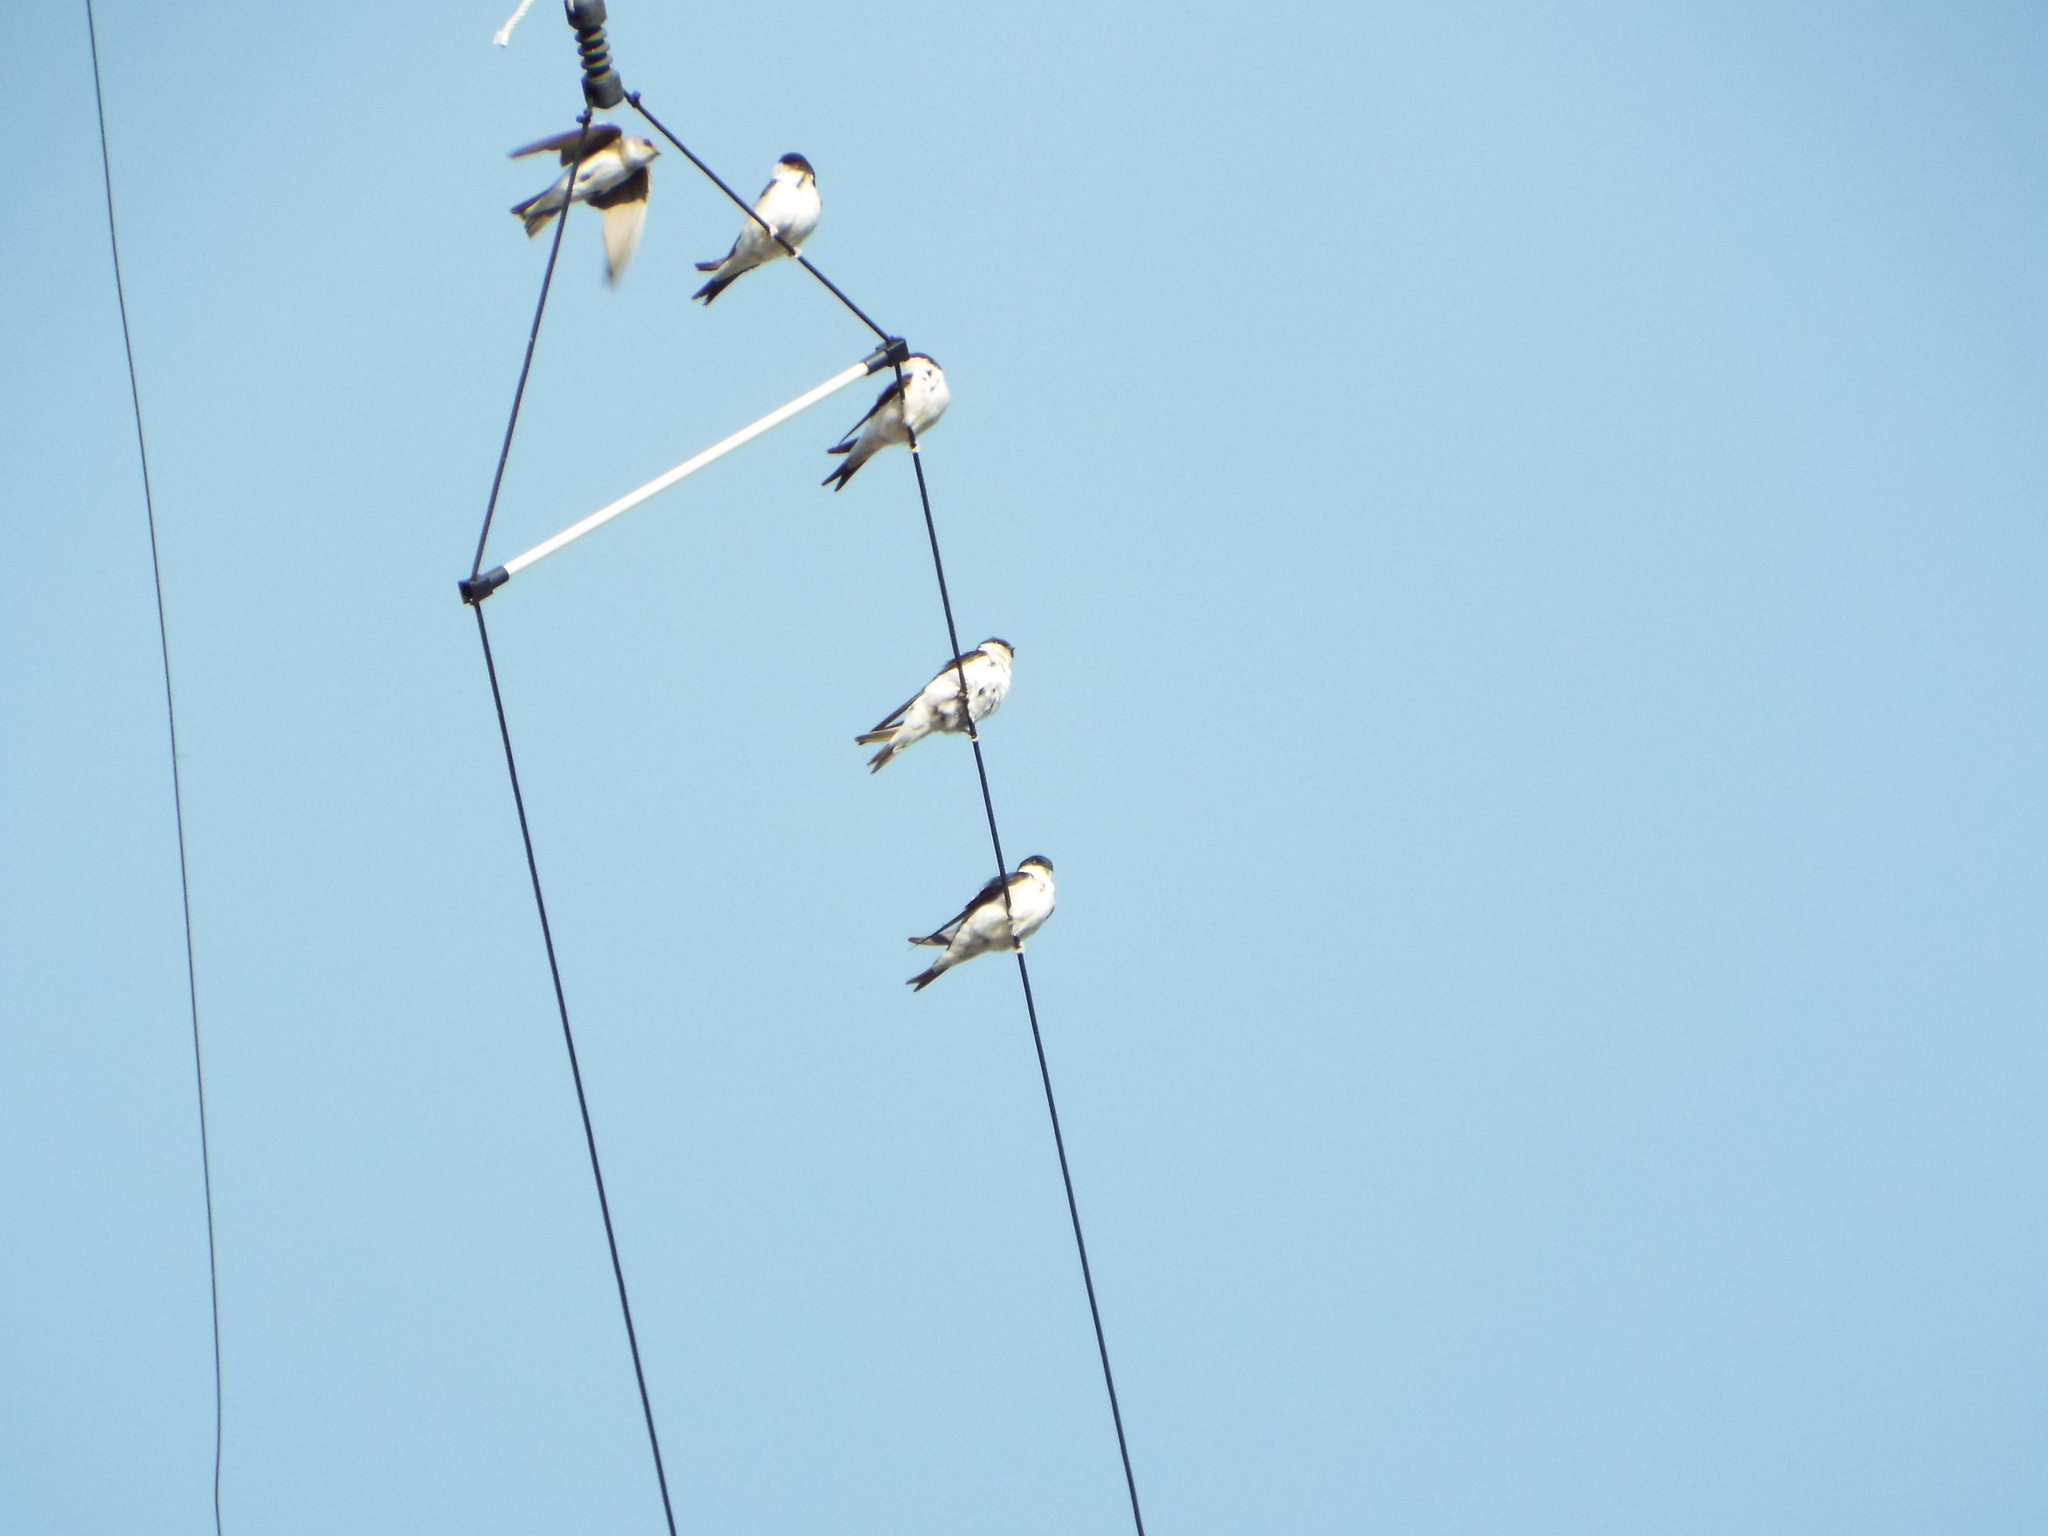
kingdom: Animalia
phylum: Chordata
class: Aves
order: Passeriformes
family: Hirundinidae
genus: Delichon
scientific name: Delichon urbicum
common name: Common house martin
